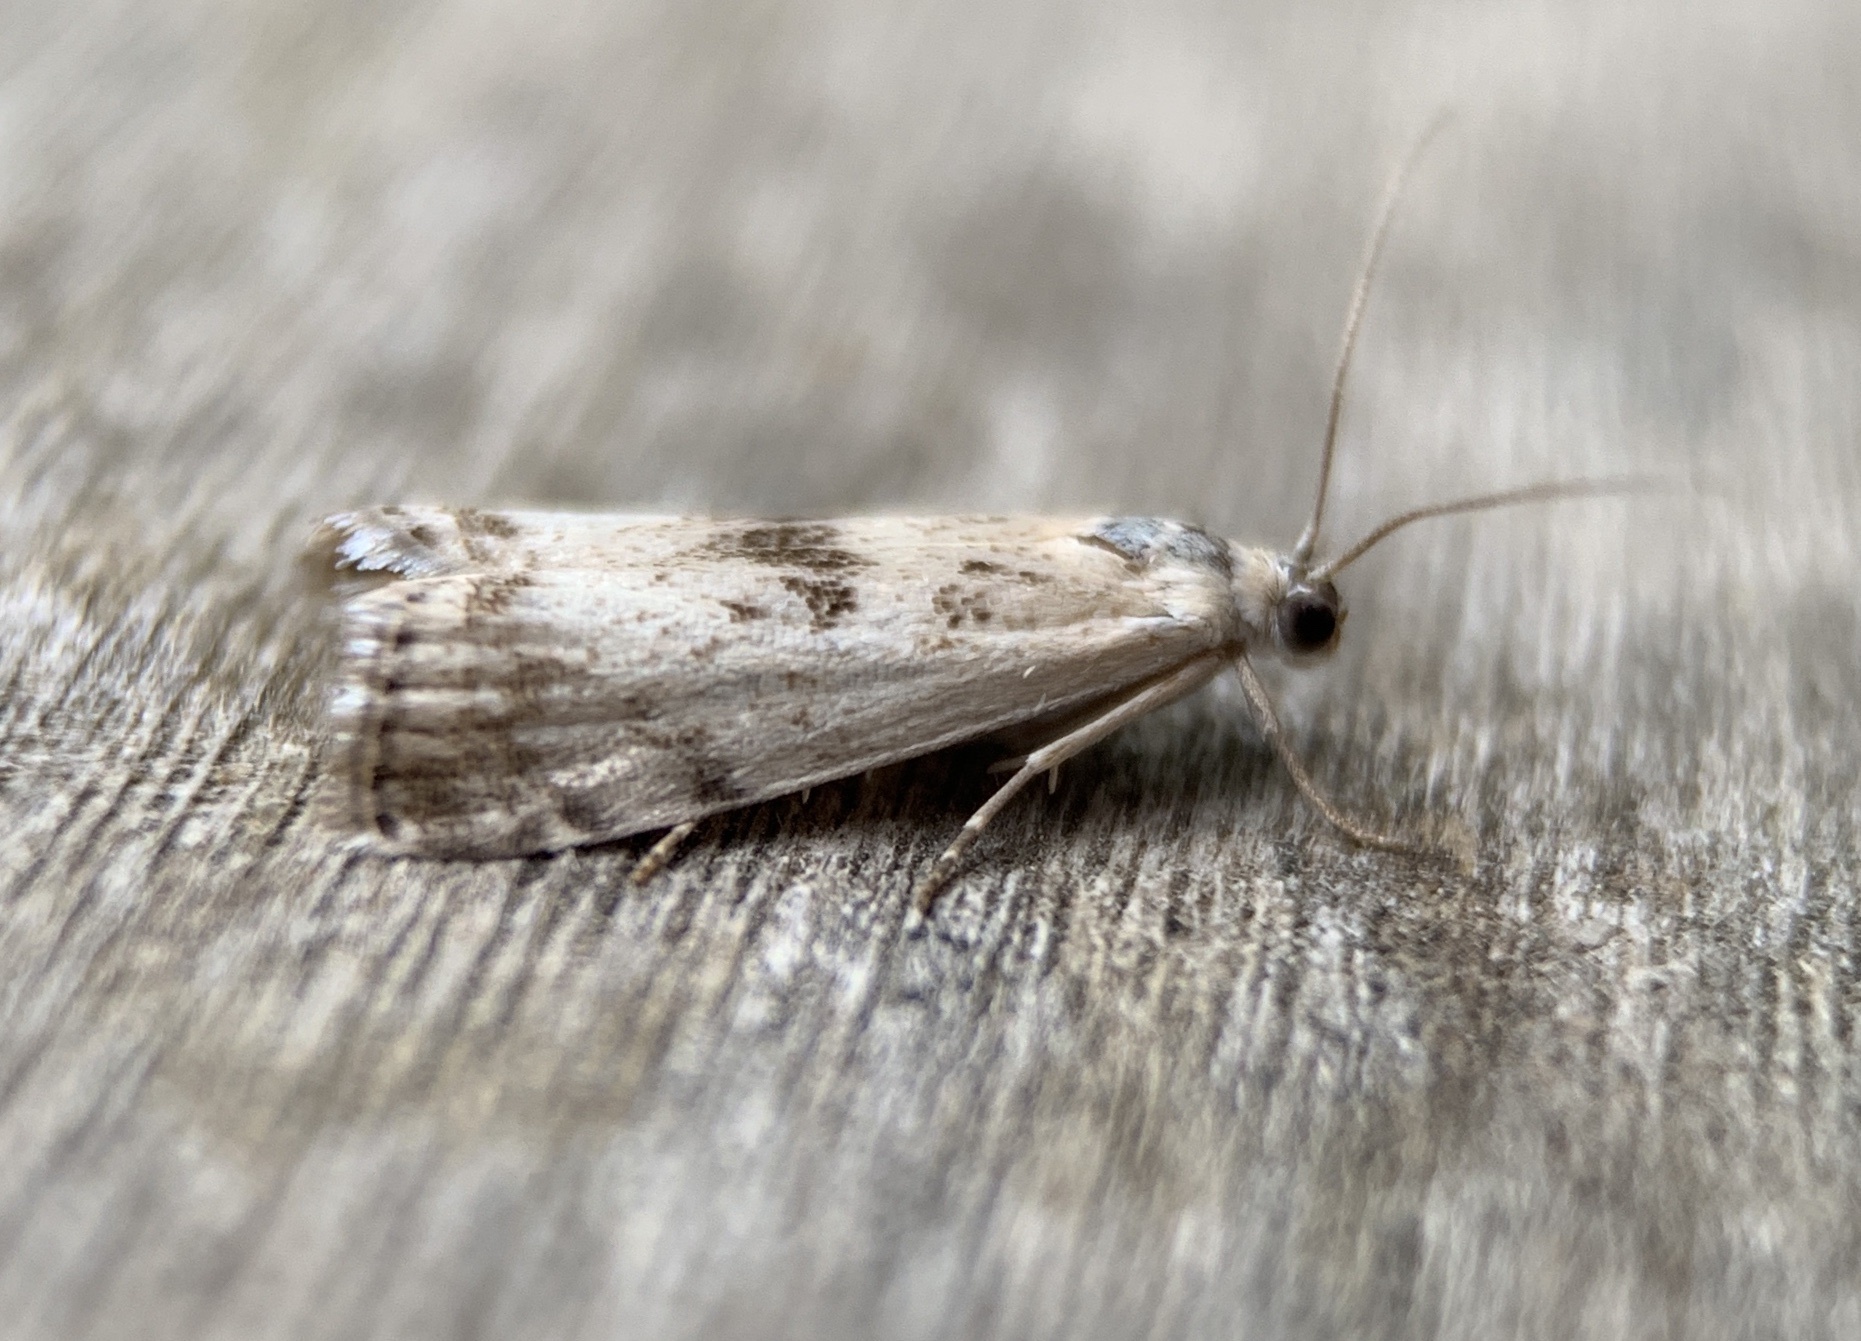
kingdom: Animalia
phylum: Arthropoda
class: Insecta
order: Lepidoptera
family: Crambidae
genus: Microcrambus
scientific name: Microcrambus immunellus
